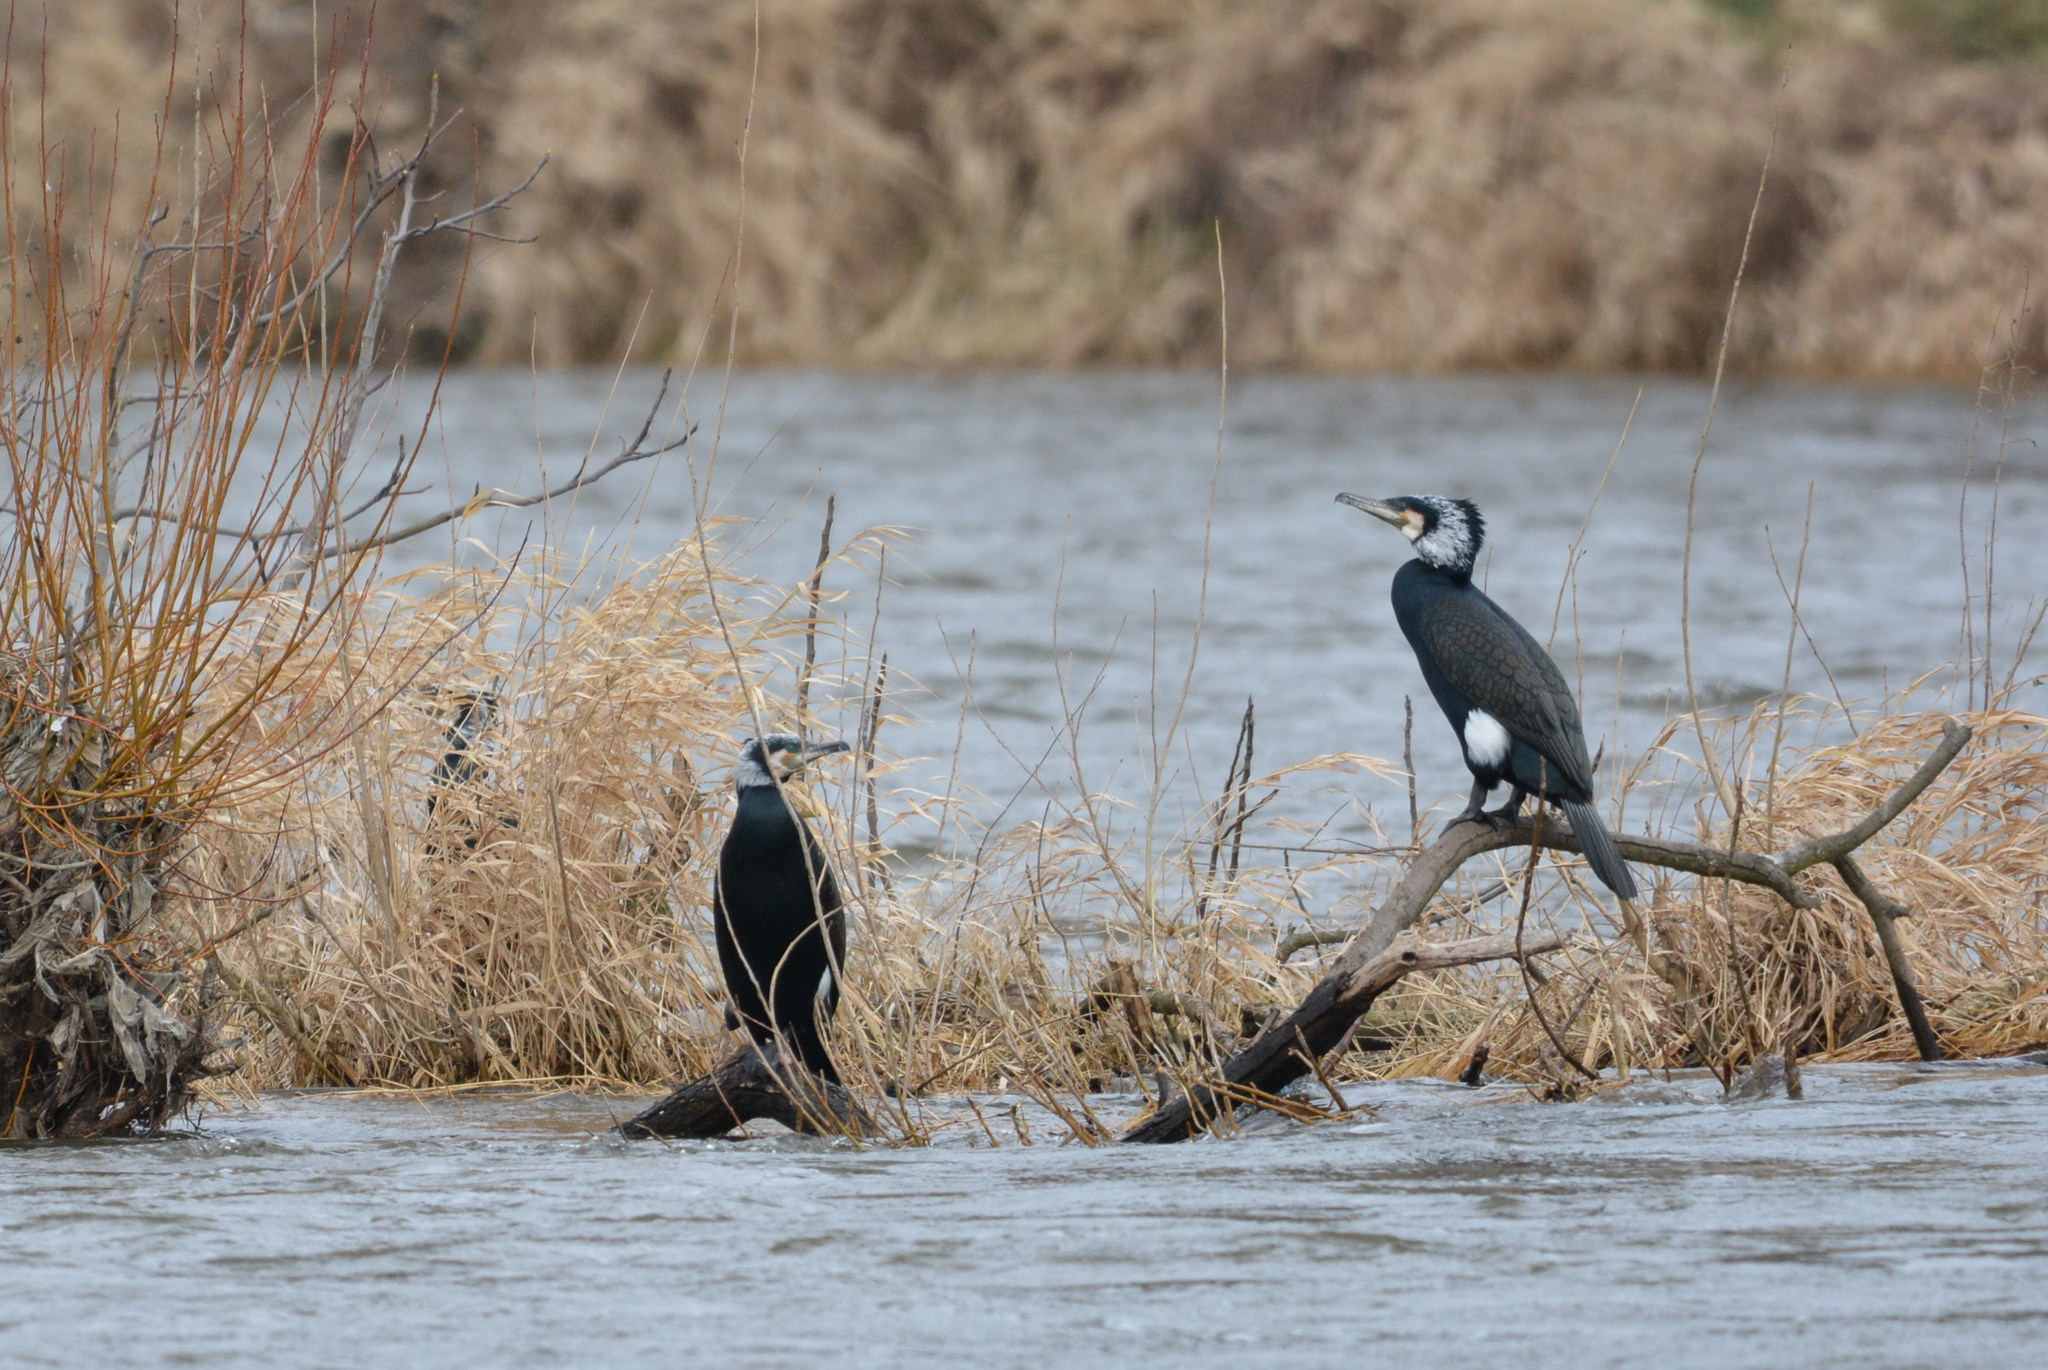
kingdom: Animalia
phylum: Chordata
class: Aves
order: Suliformes
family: Phalacrocoracidae
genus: Phalacrocorax
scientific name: Phalacrocorax carbo
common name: Great cormorant
